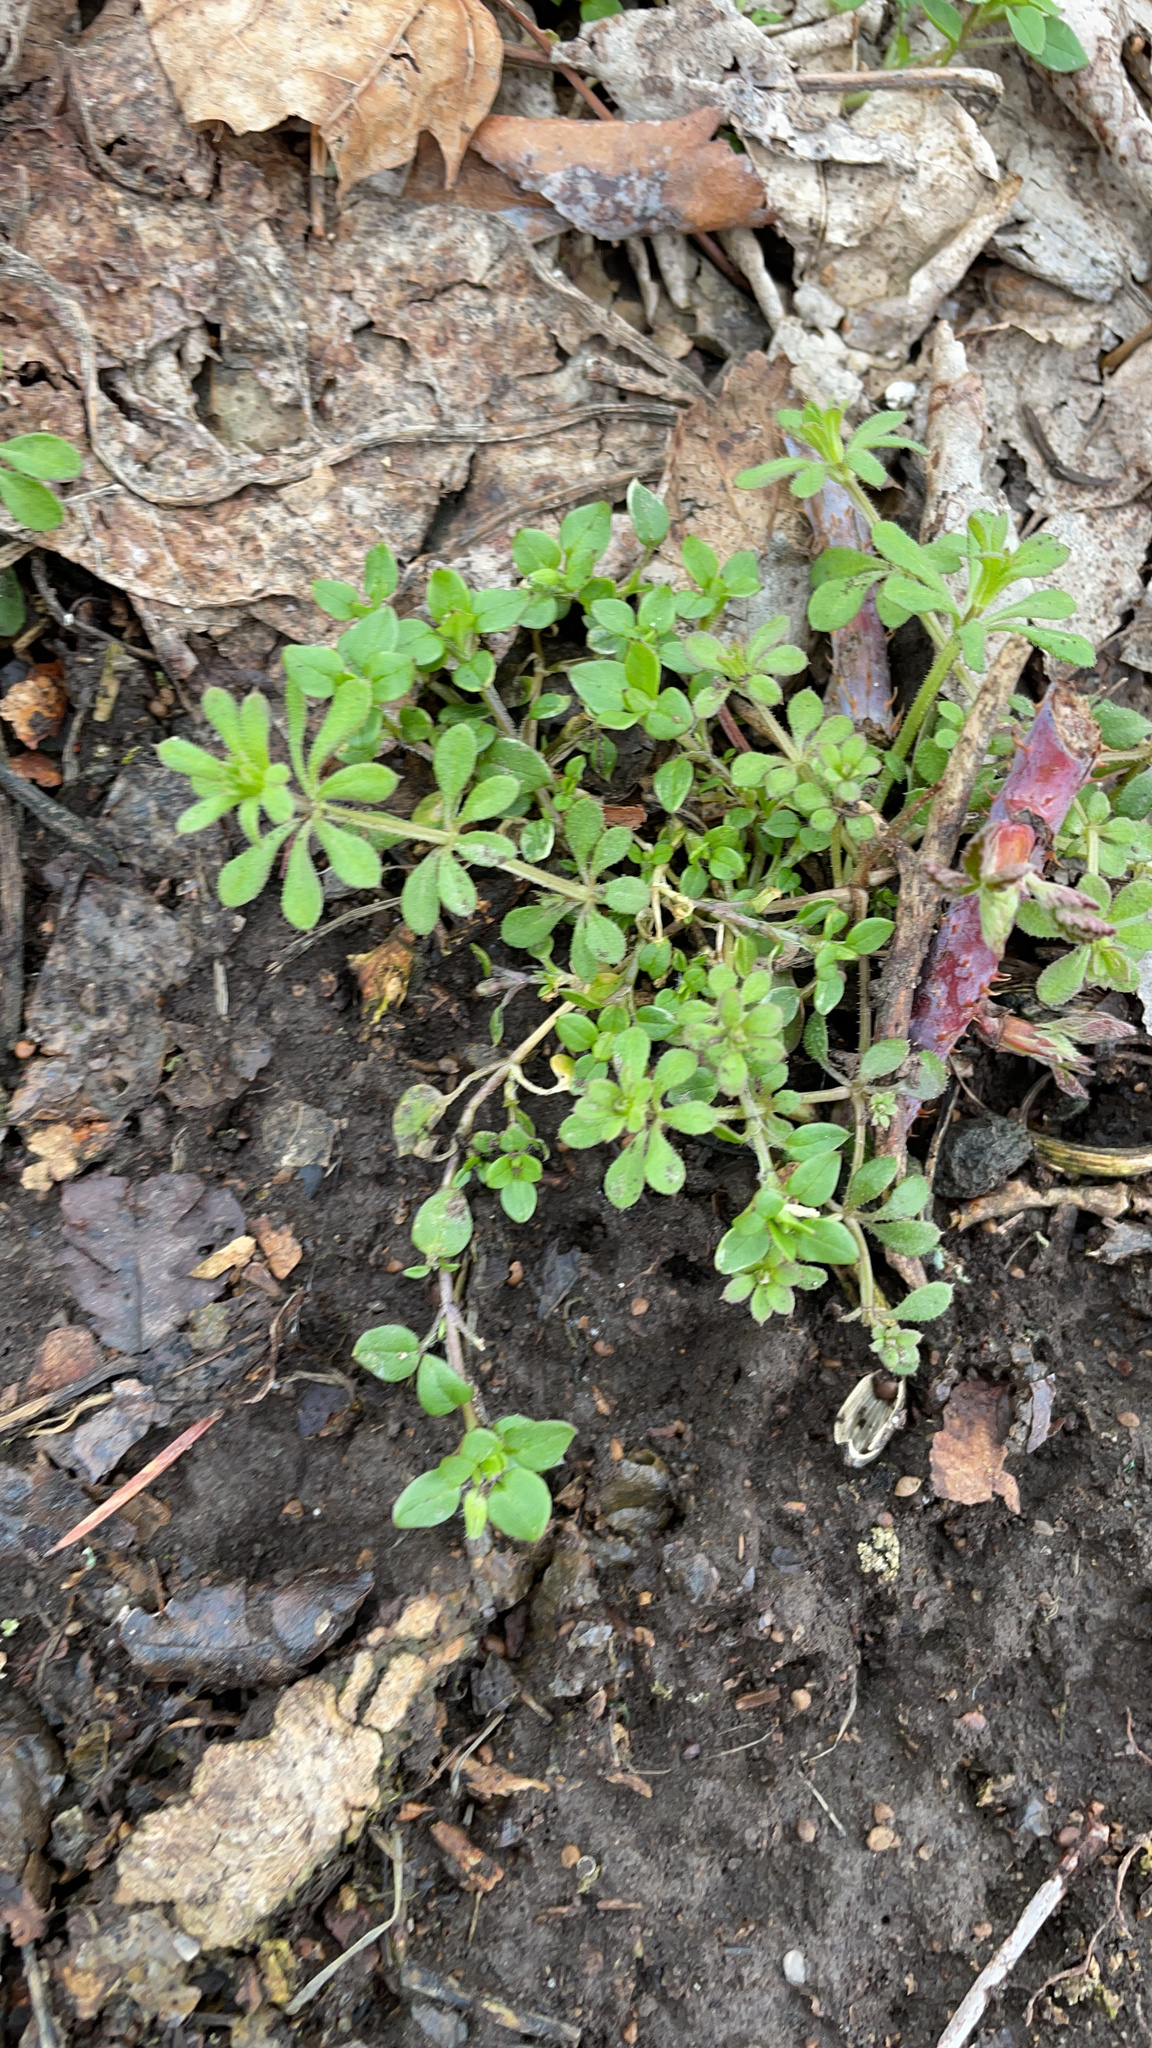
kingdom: Plantae
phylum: Tracheophyta
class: Magnoliopsida
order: Gentianales
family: Rubiaceae
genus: Galium
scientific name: Galium aparine
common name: Cleavers
